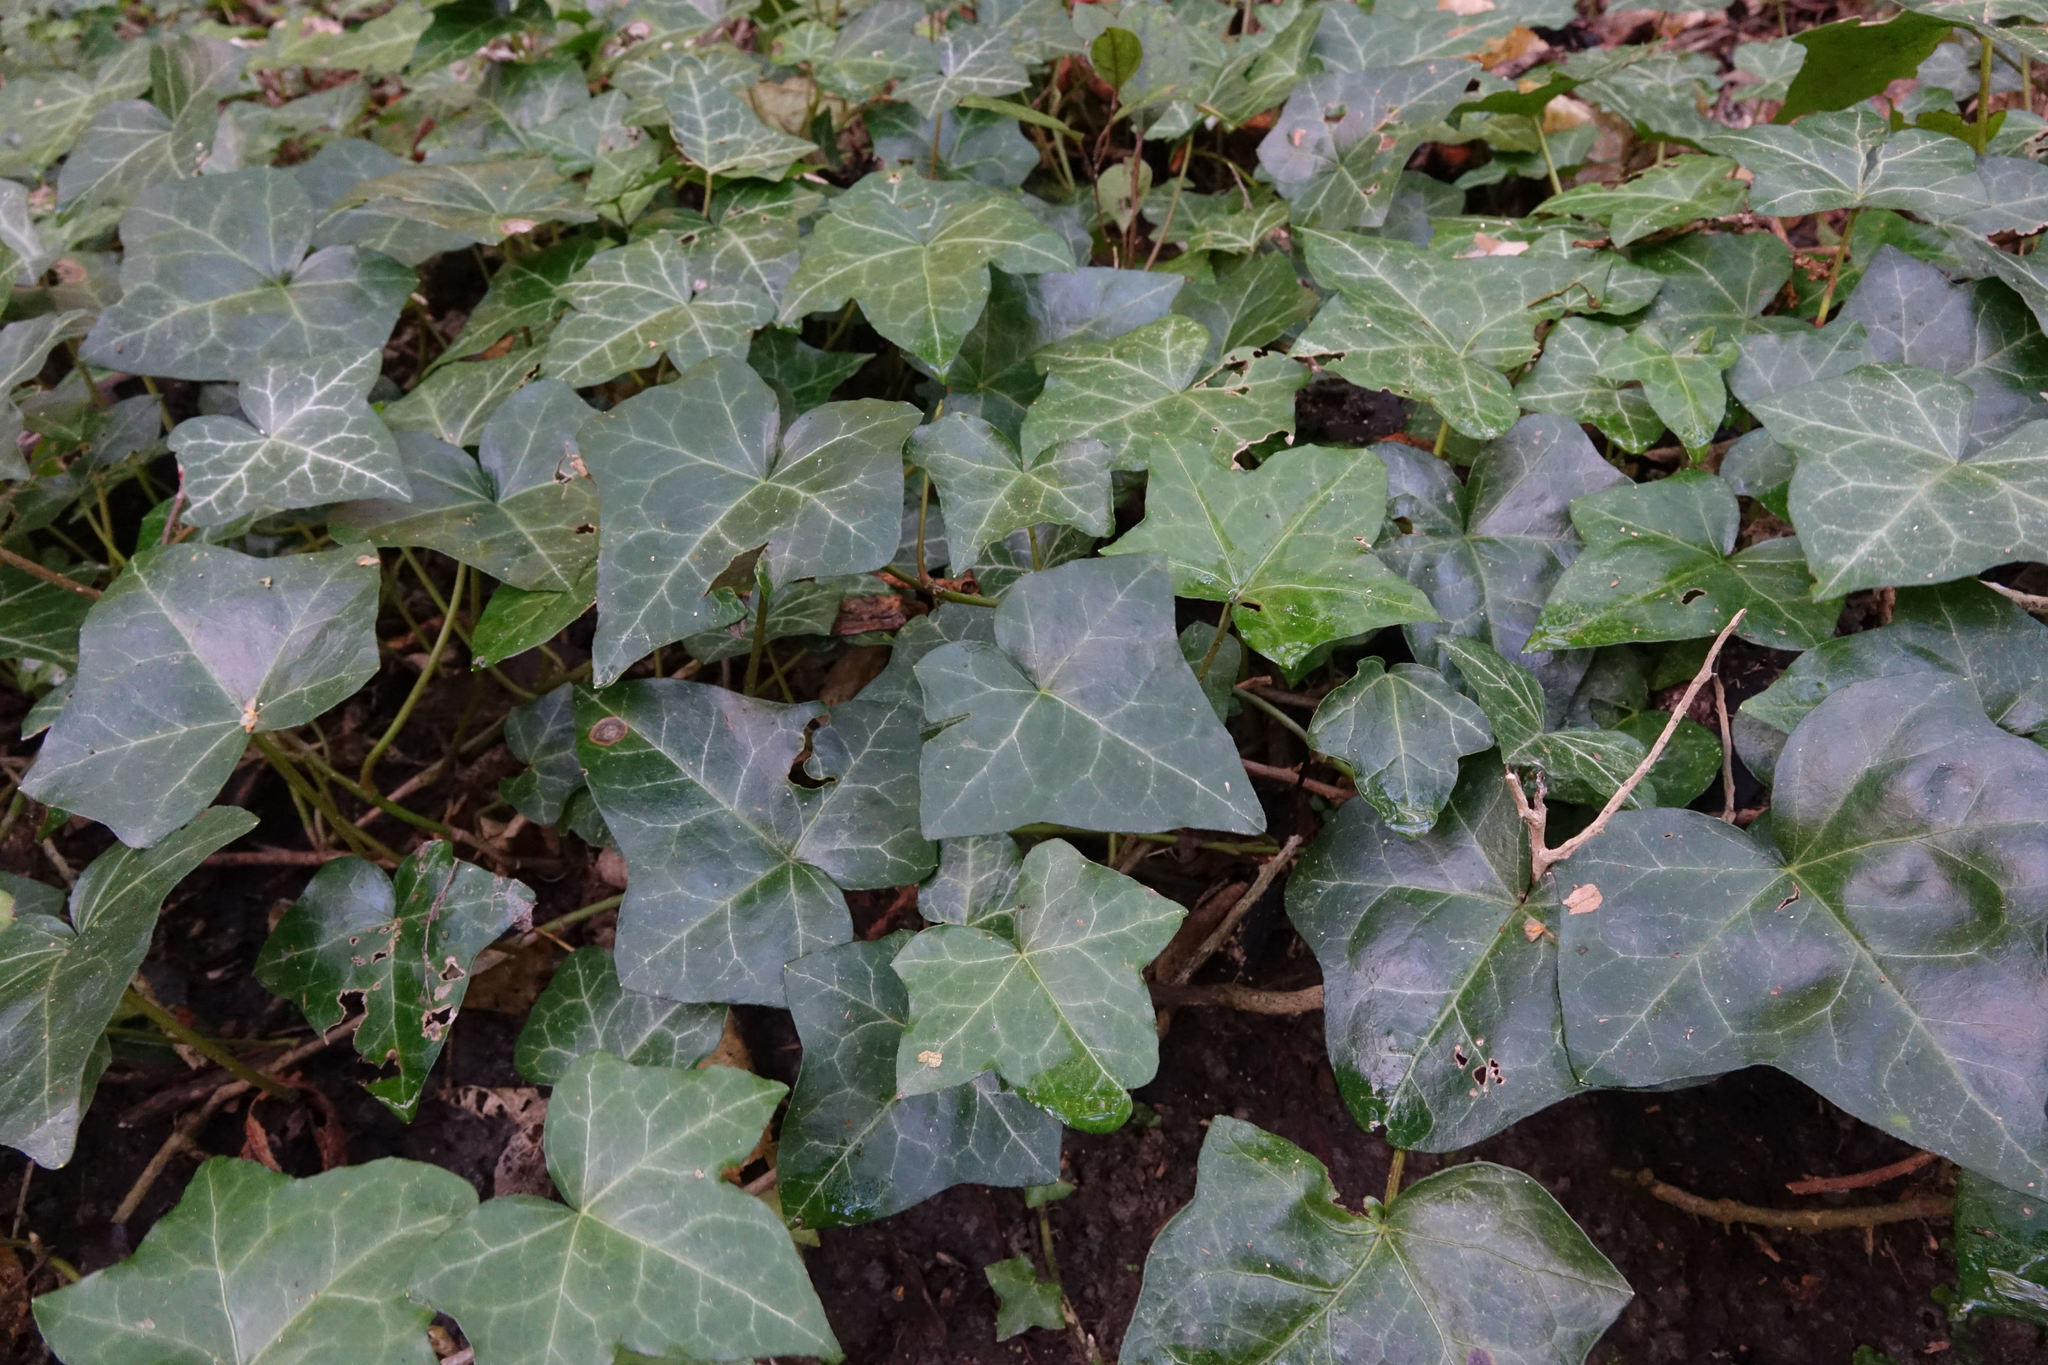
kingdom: Plantae
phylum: Tracheophyta
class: Magnoliopsida
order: Apiales
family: Araliaceae
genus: Hedera
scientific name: Hedera helix
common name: Ivy
